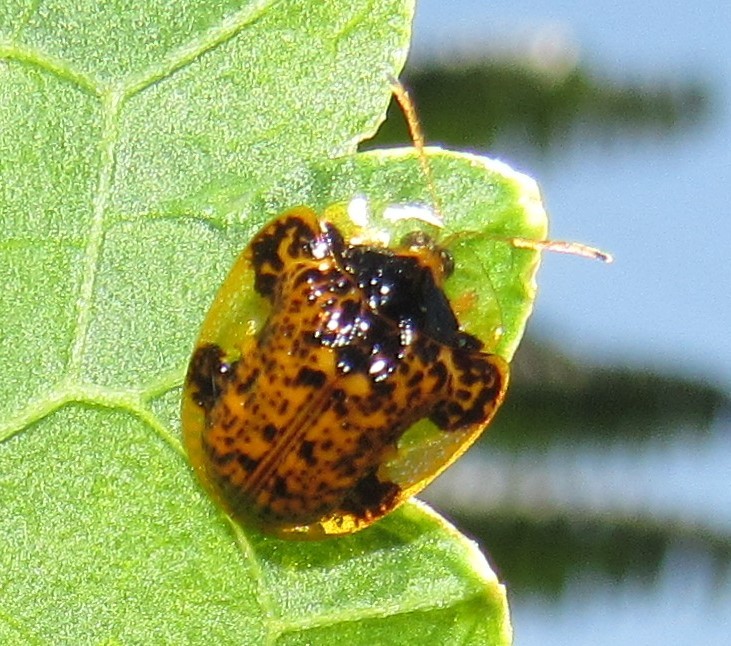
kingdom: Animalia
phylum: Arthropoda
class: Insecta
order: Coleoptera
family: Chrysomelidae
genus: Microctenochira
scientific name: Microctenochira optata
